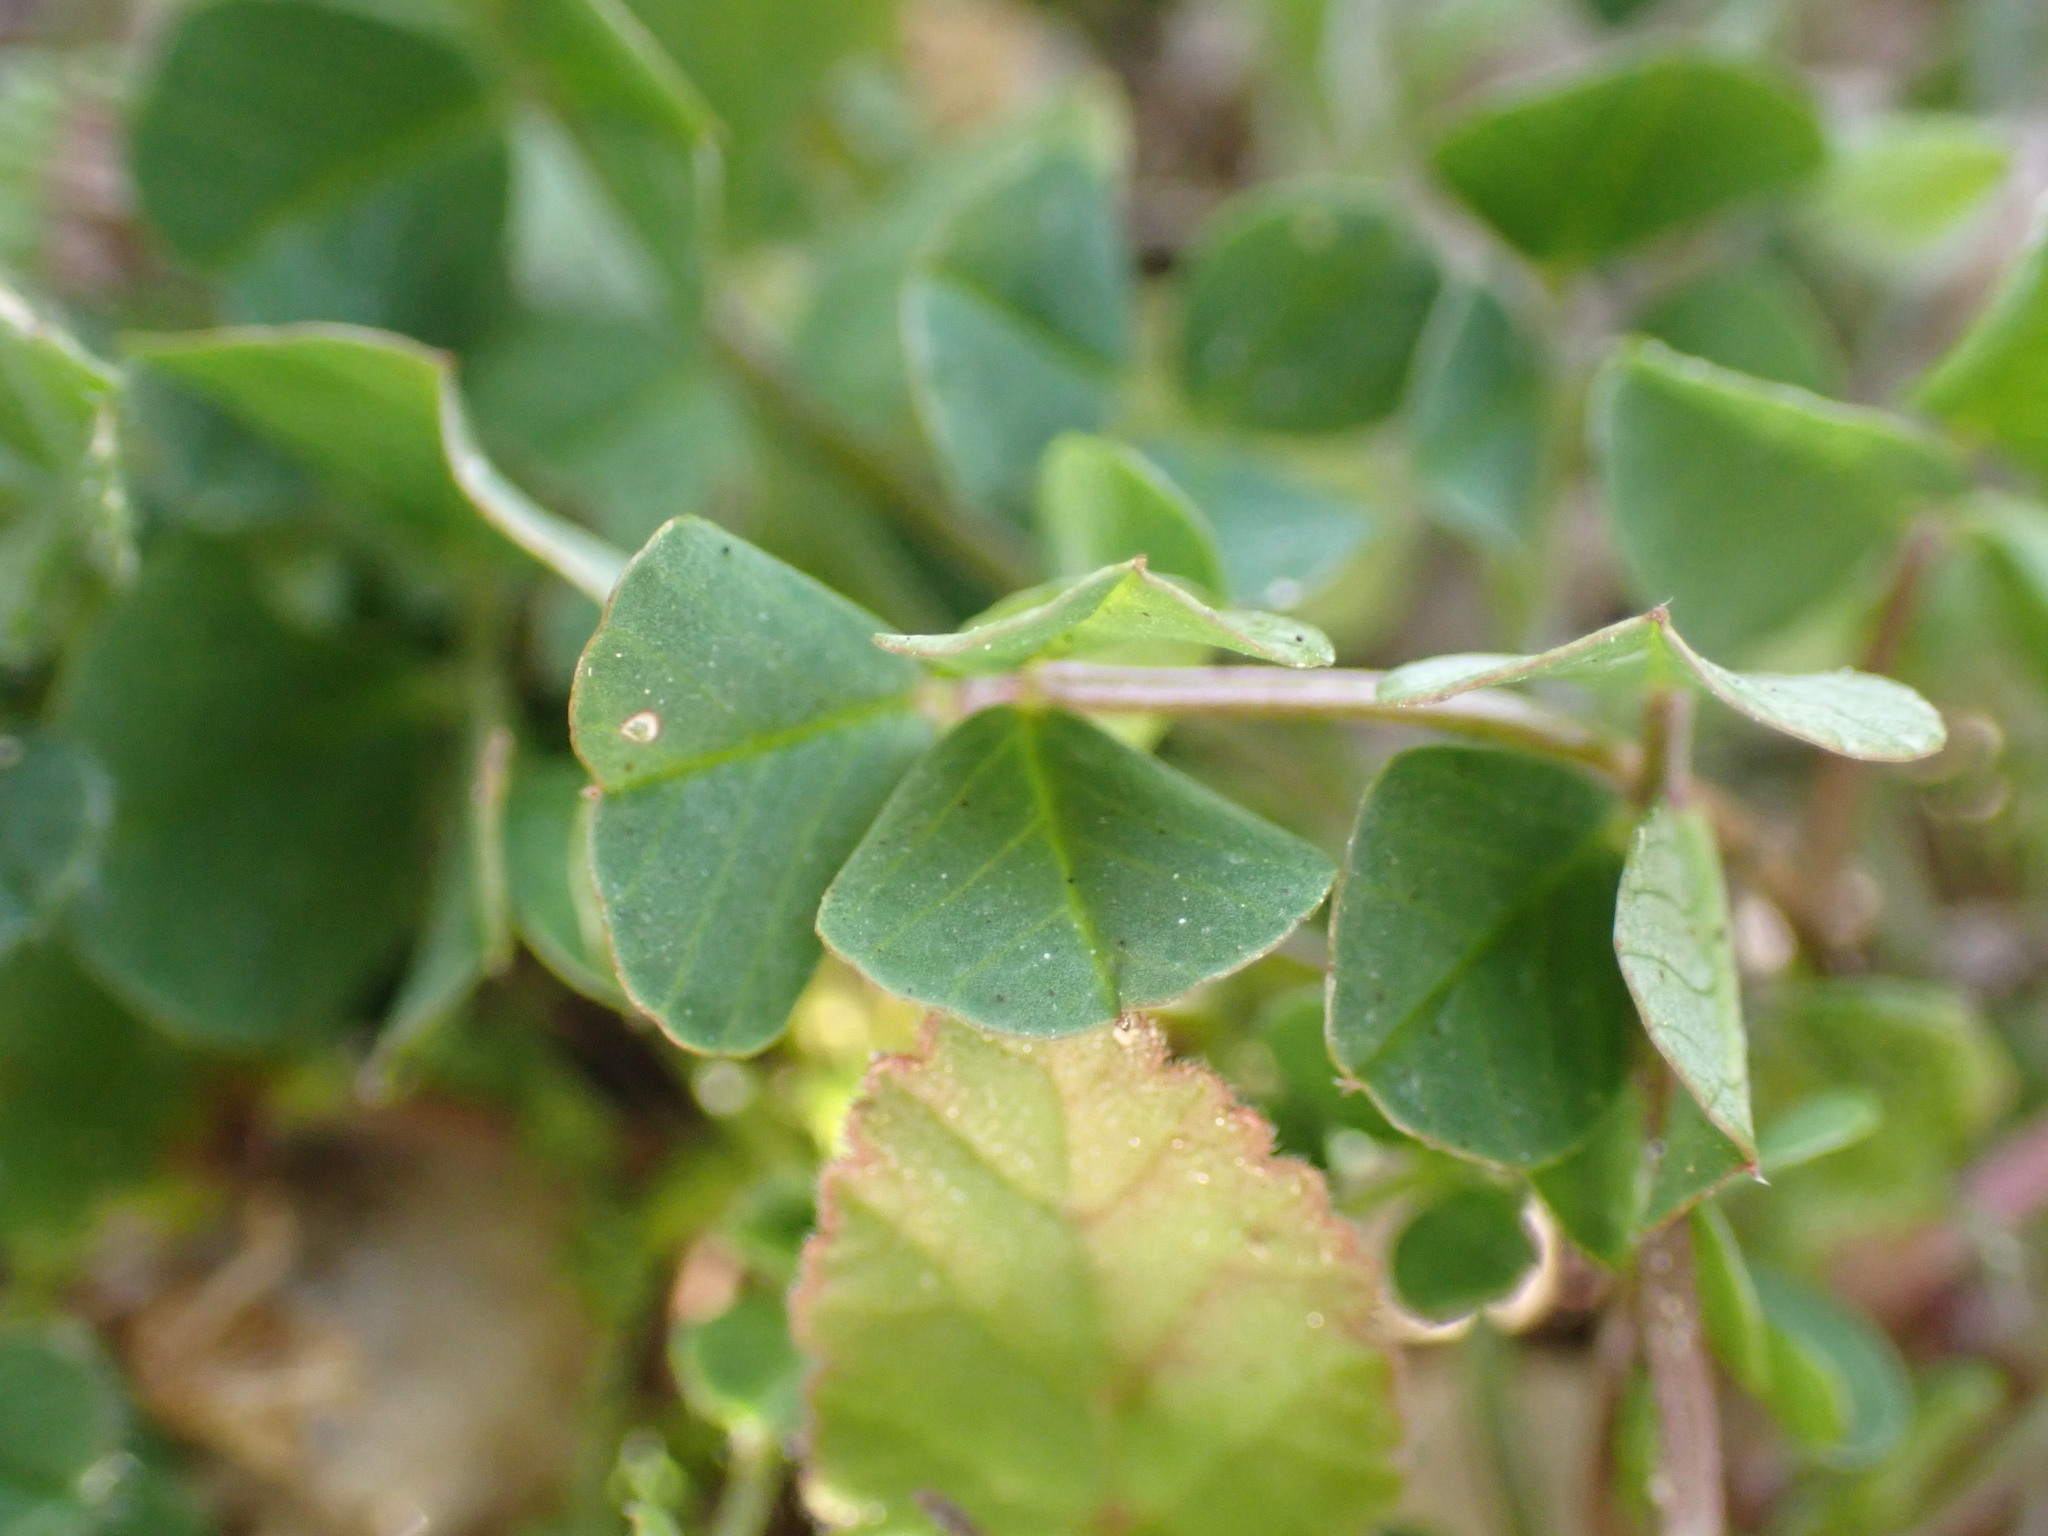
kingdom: Plantae
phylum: Tracheophyta
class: Magnoliopsida
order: Fabales
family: Fabaceae
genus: Medicago
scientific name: Medicago polymorpha
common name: Burclover
